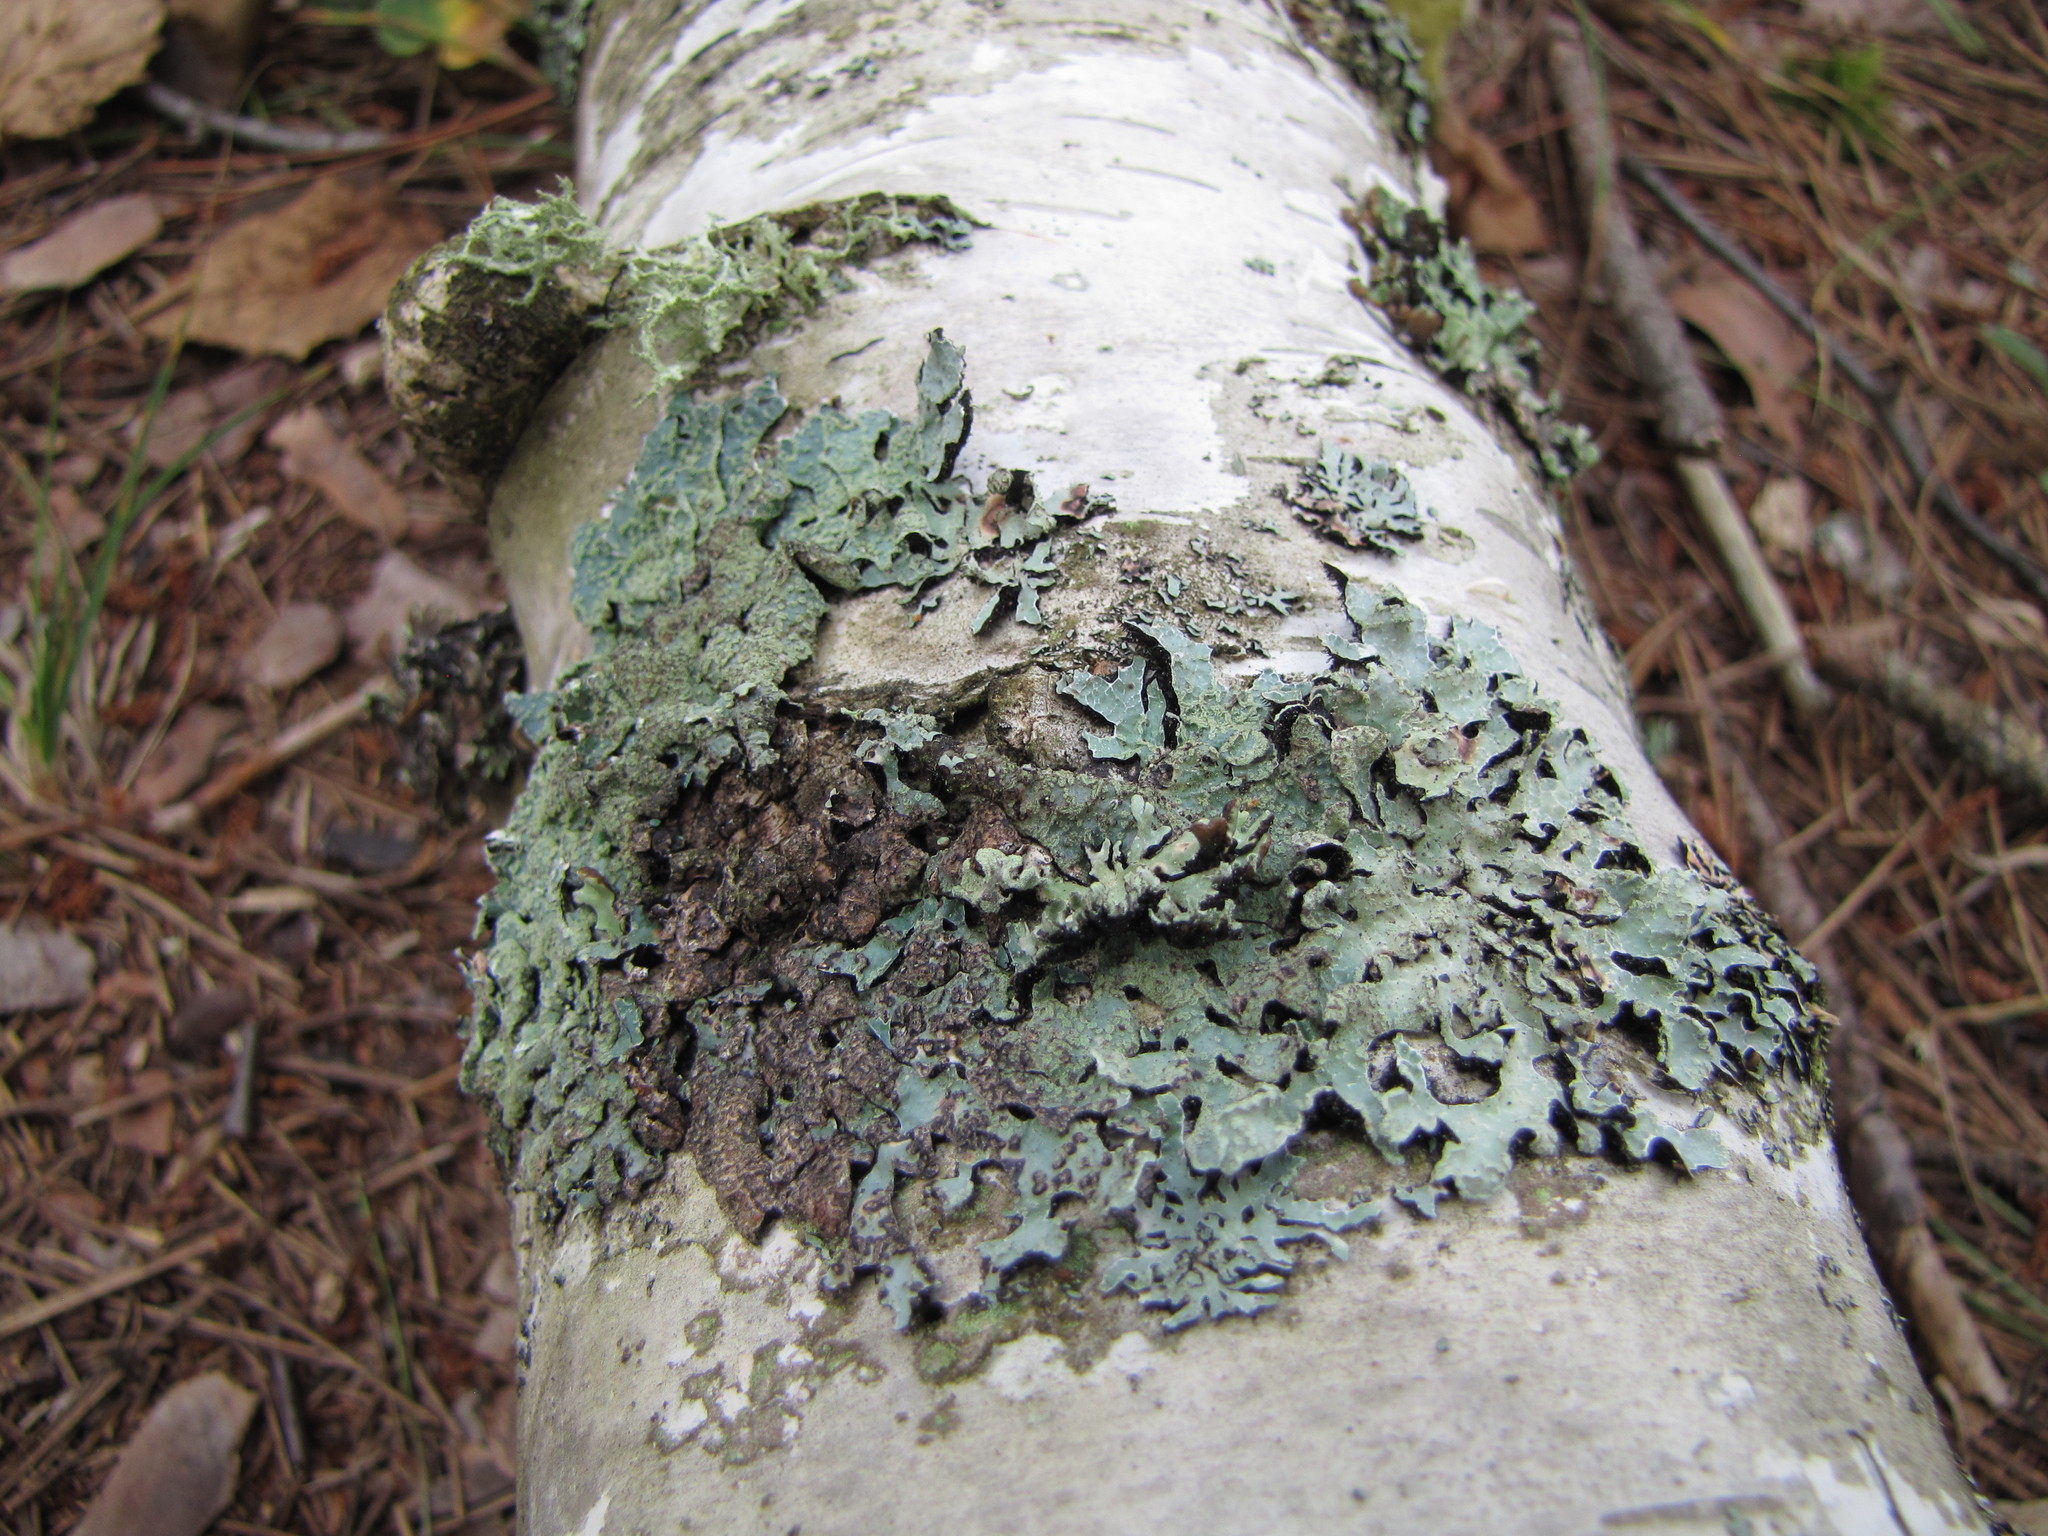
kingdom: Fungi
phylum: Ascomycota
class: Lecanoromycetes
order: Lecanorales
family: Parmeliaceae
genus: Parmelia
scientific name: Parmelia sulcata
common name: Netted shield lichen
